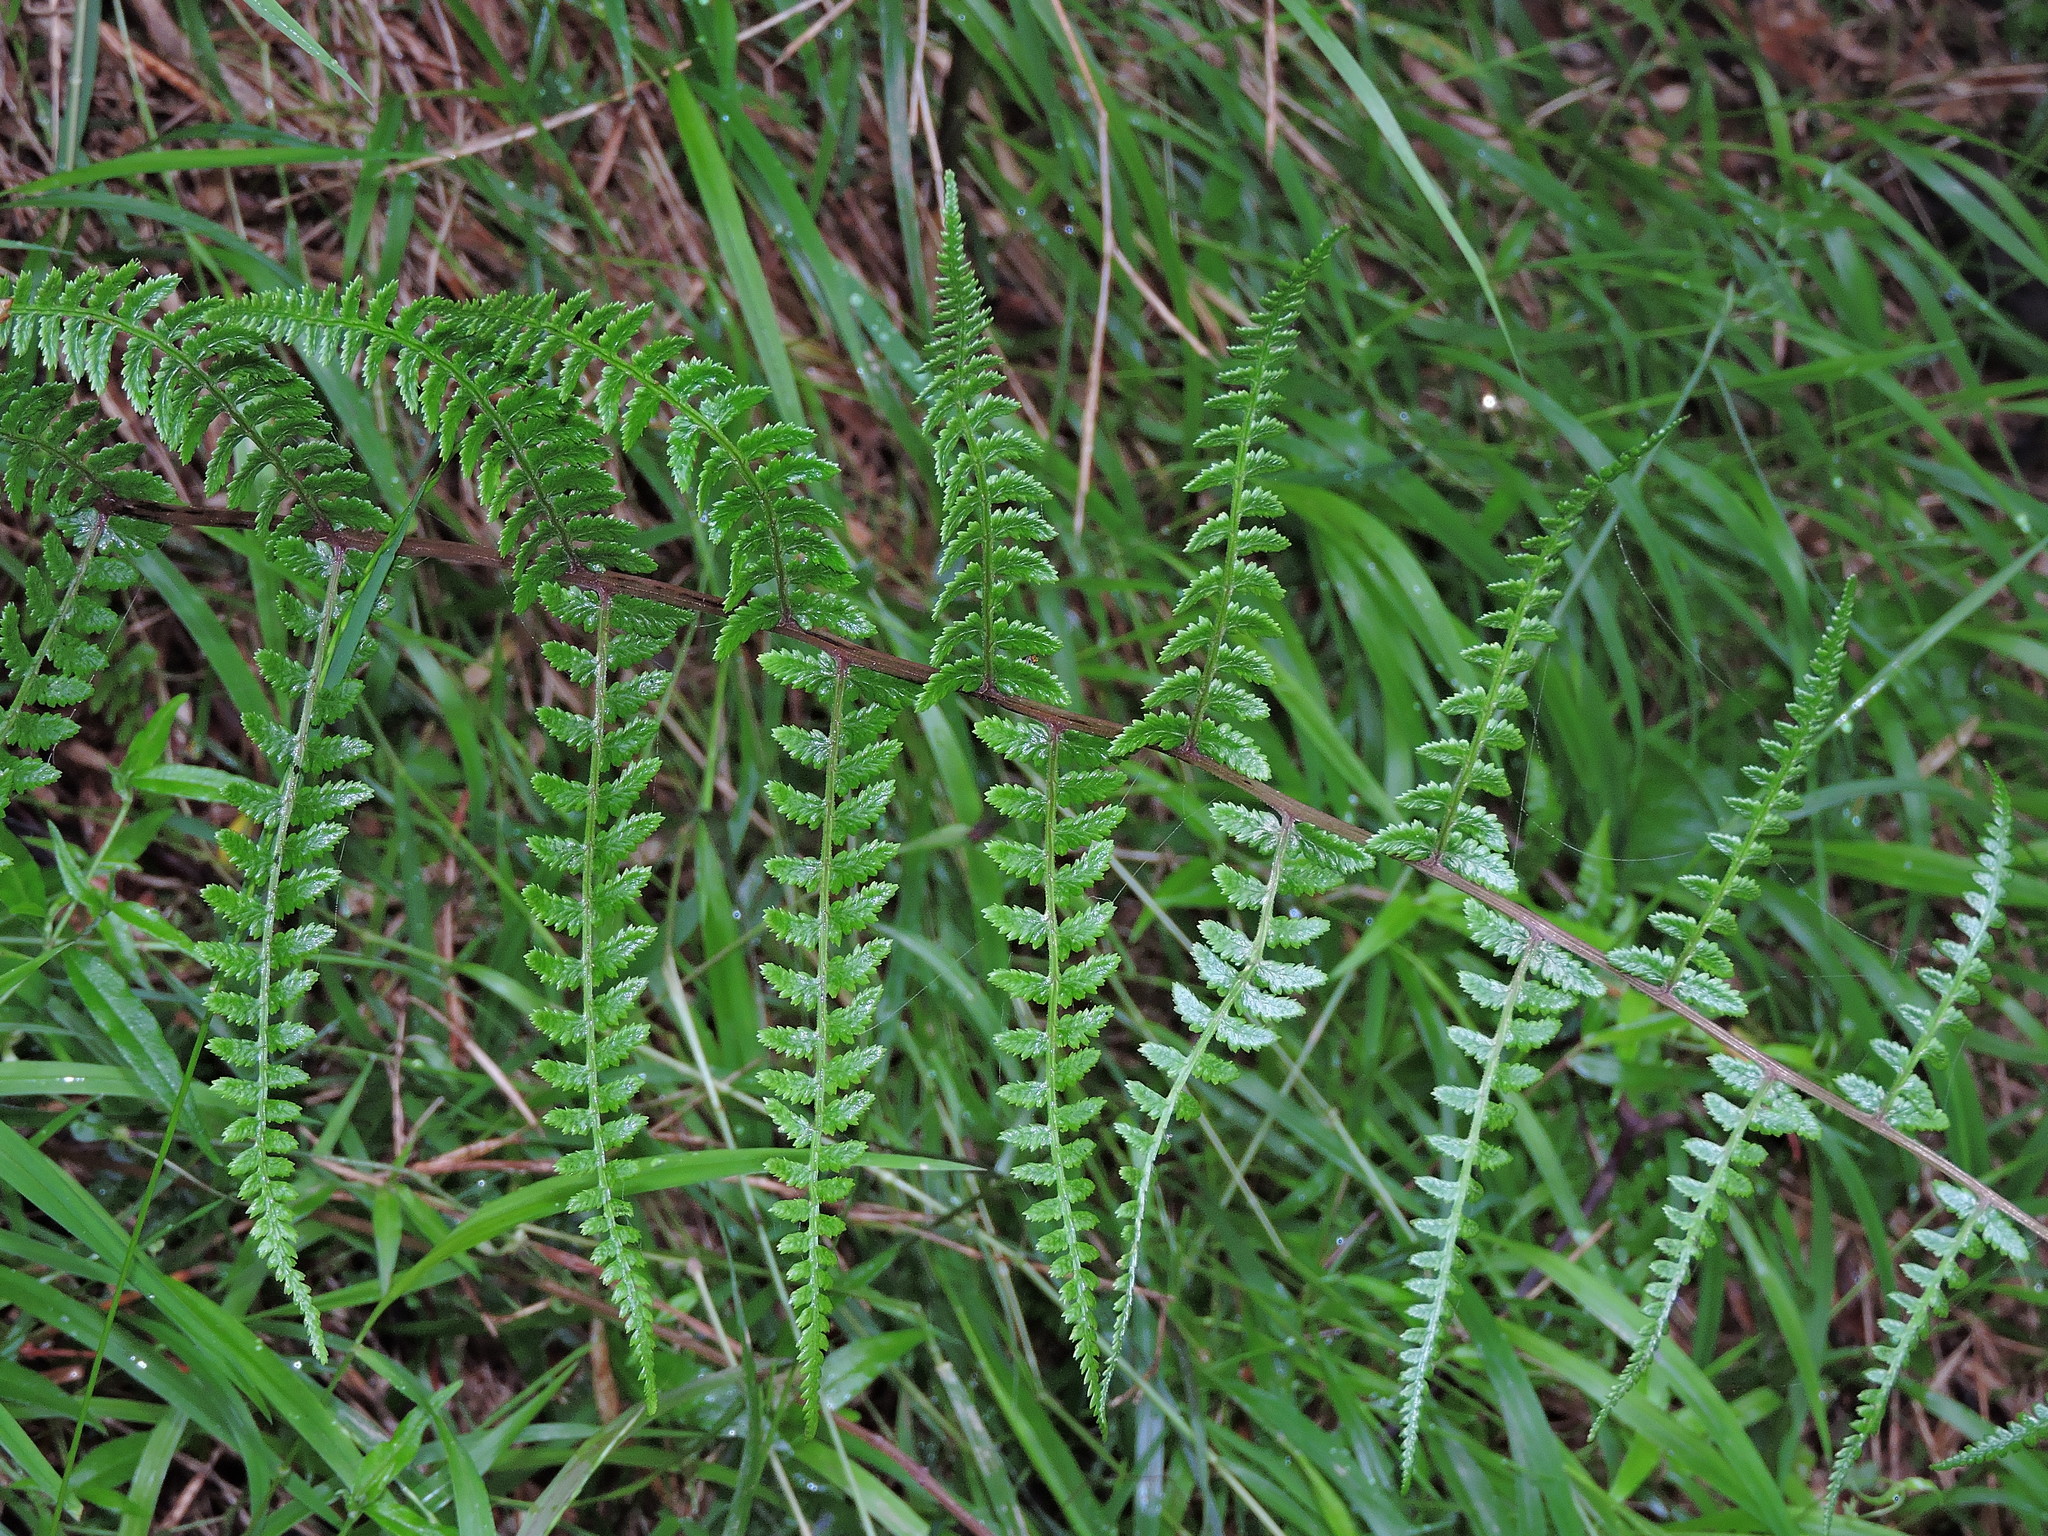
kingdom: Plantae
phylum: Tracheophyta
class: Polypodiopsida
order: Polypodiales
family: Athyriaceae
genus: Athyrium
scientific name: Athyrium oppositipennum
